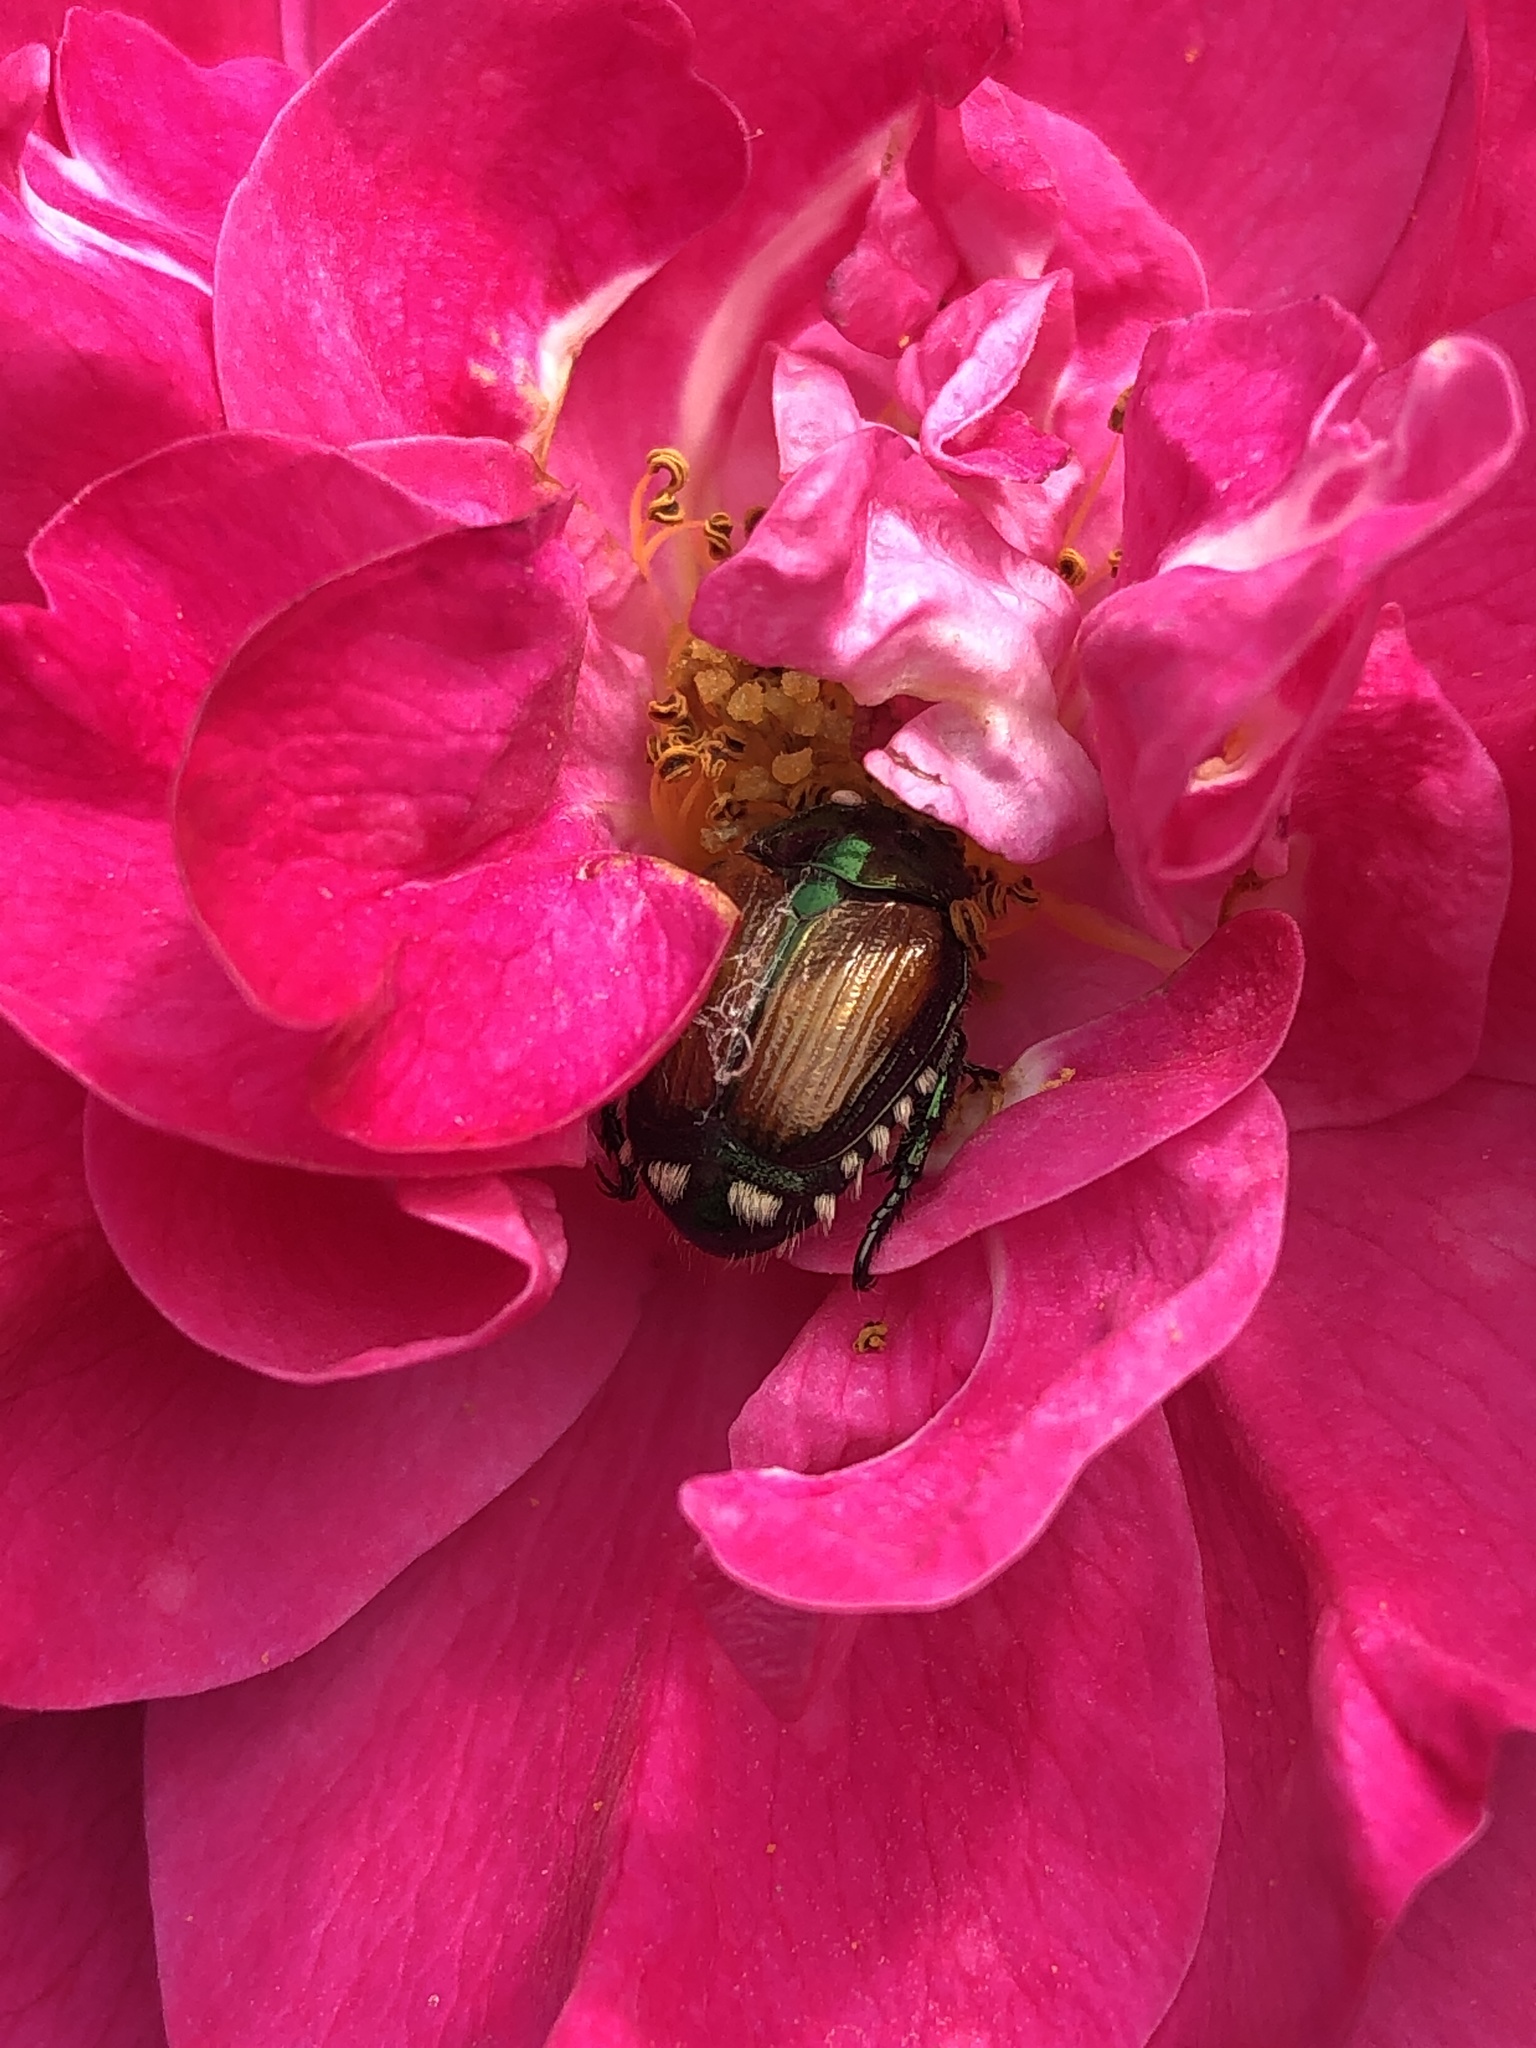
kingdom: Animalia
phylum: Arthropoda
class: Insecta
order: Coleoptera
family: Scarabaeidae
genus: Popillia
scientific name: Popillia japonica
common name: Japanese beetle
